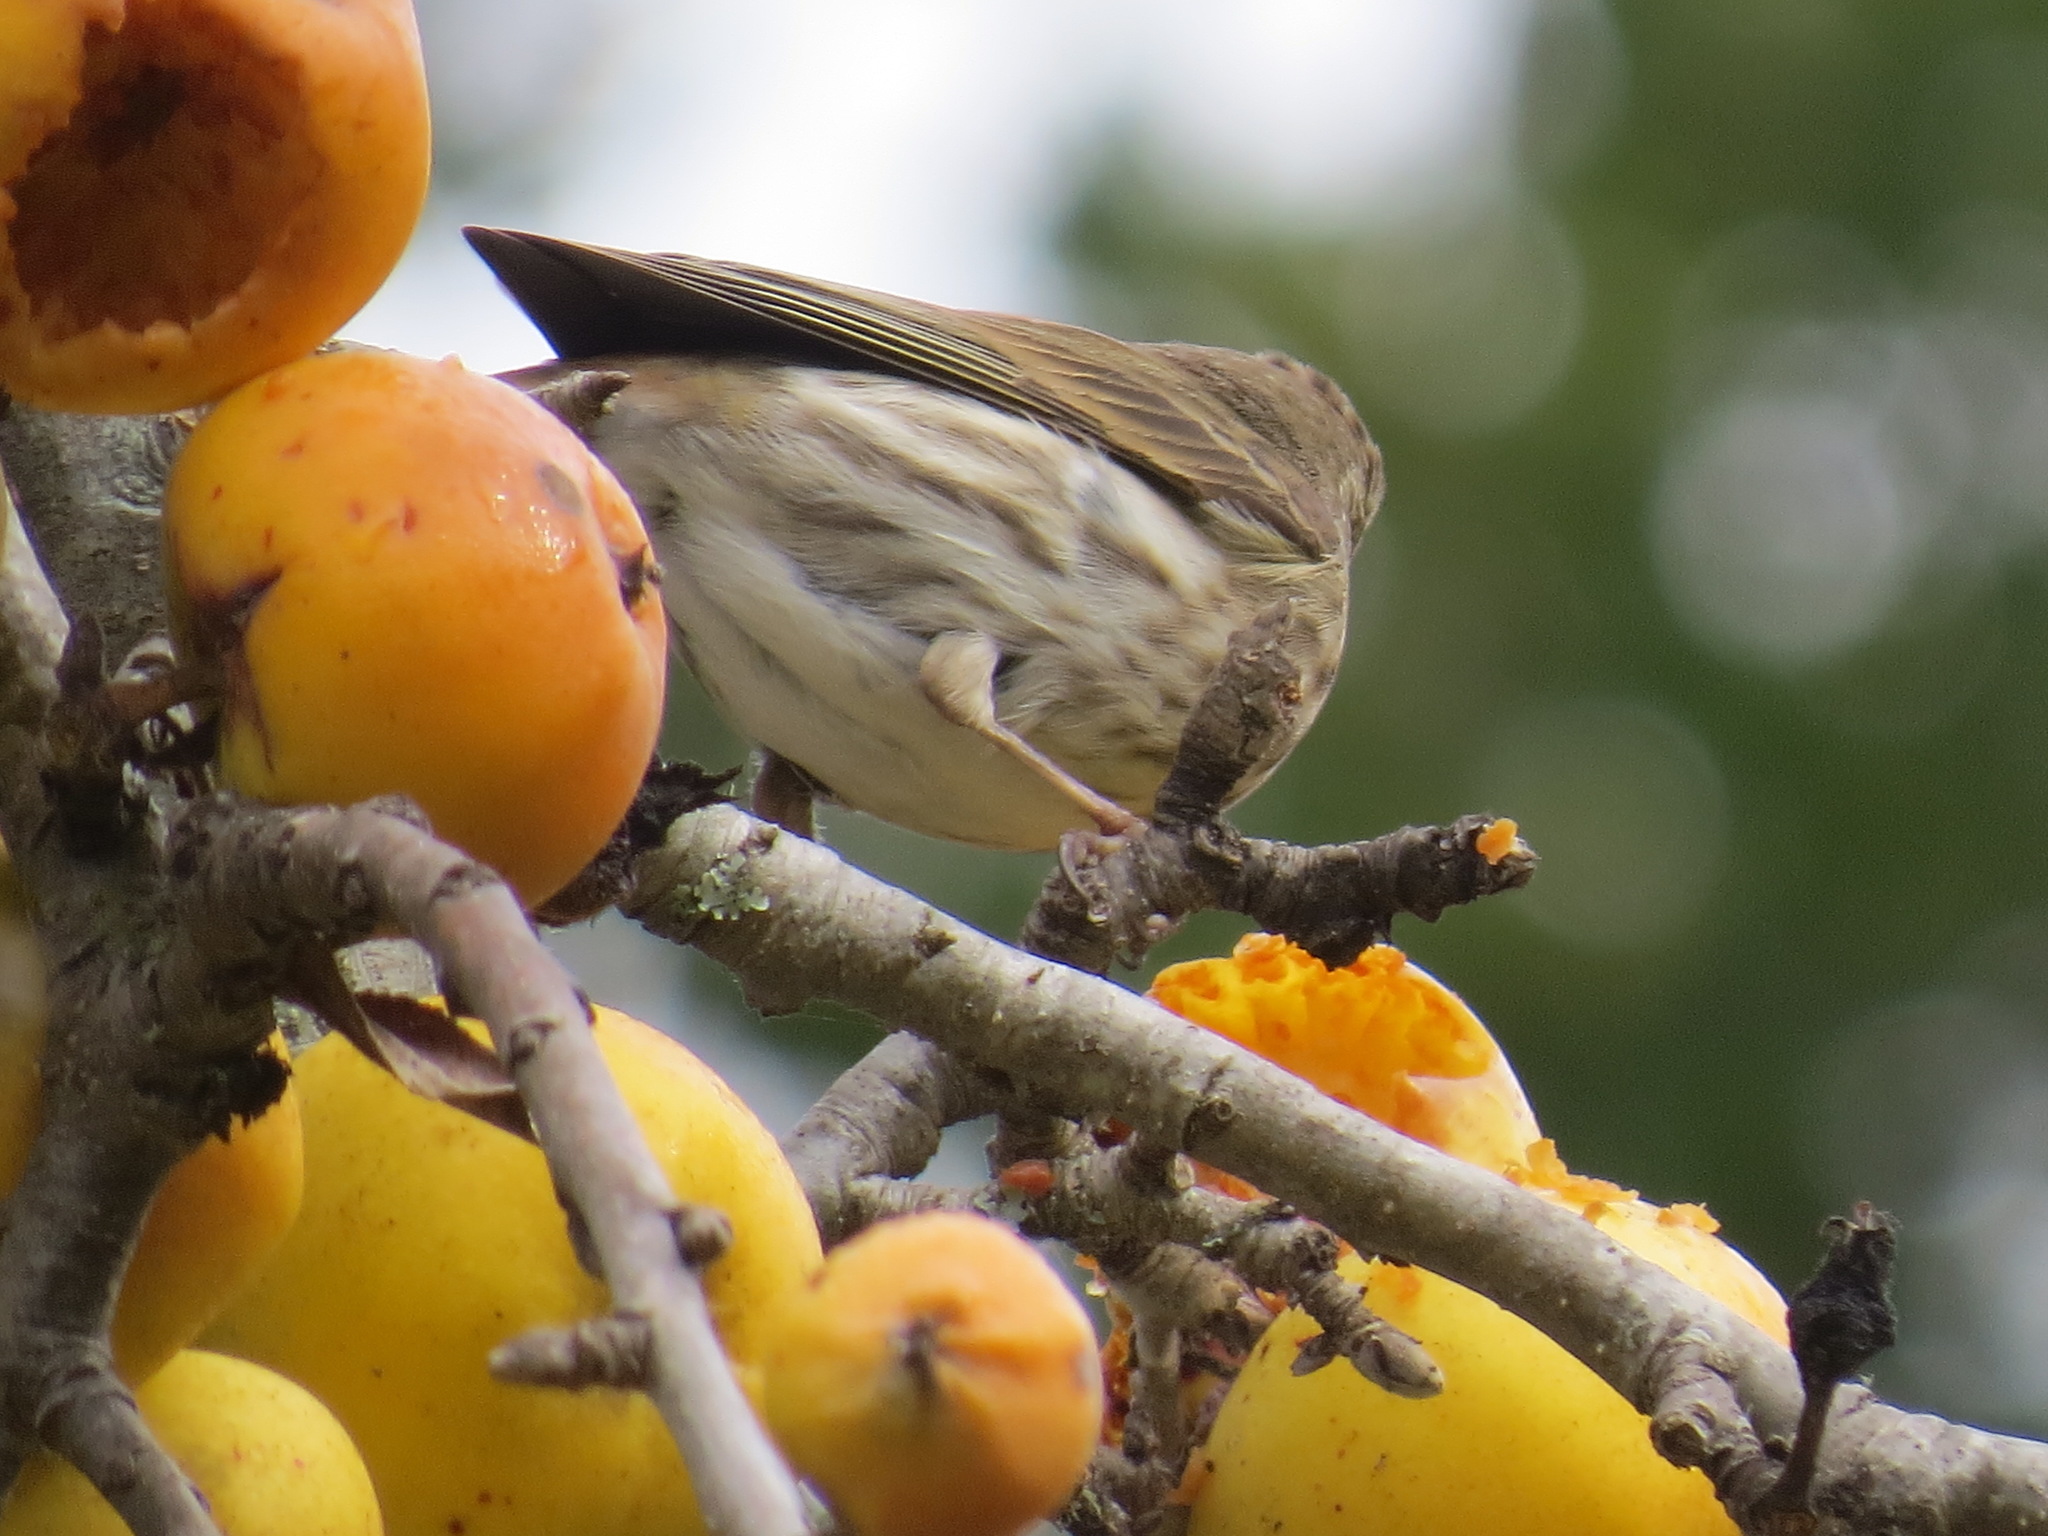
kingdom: Animalia
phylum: Chordata
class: Aves
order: Passeriformes
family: Fringillidae
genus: Haemorhous
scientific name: Haemorhous purpureus
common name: Purple finch
